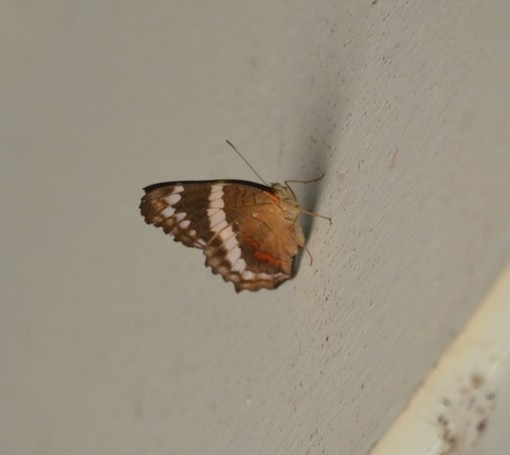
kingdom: Animalia
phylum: Arthropoda
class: Insecta
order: Lepidoptera
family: Nymphalidae
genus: Anartia
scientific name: Anartia fatima
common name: Banded peacock
